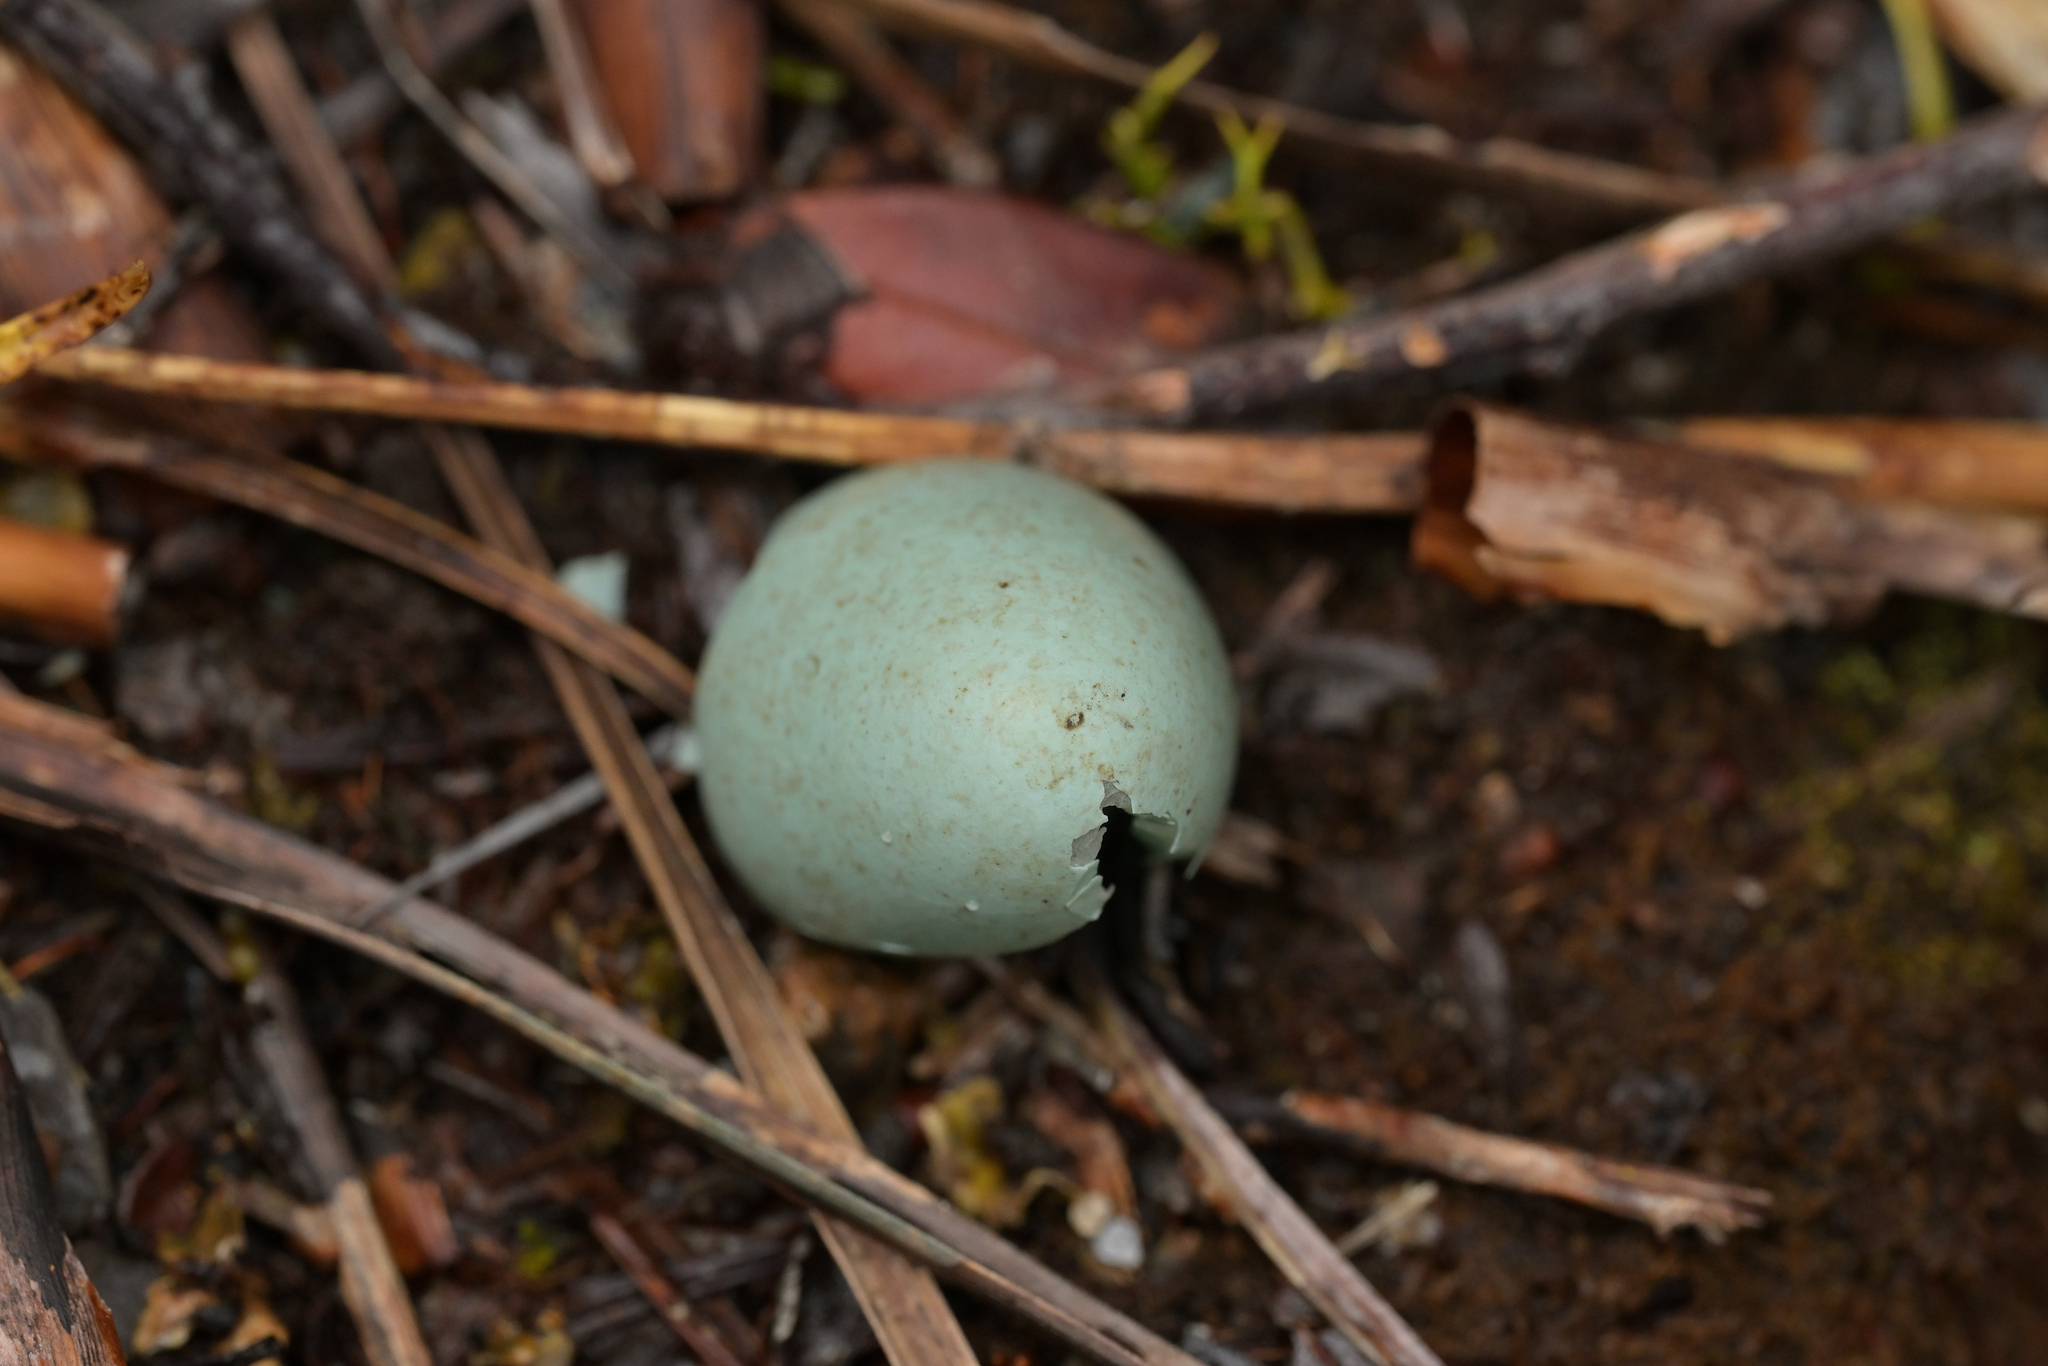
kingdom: Animalia
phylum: Chordata
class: Aves
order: Passeriformes
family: Turdidae
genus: Turdus
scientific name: Turdus merula
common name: Common blackbird
